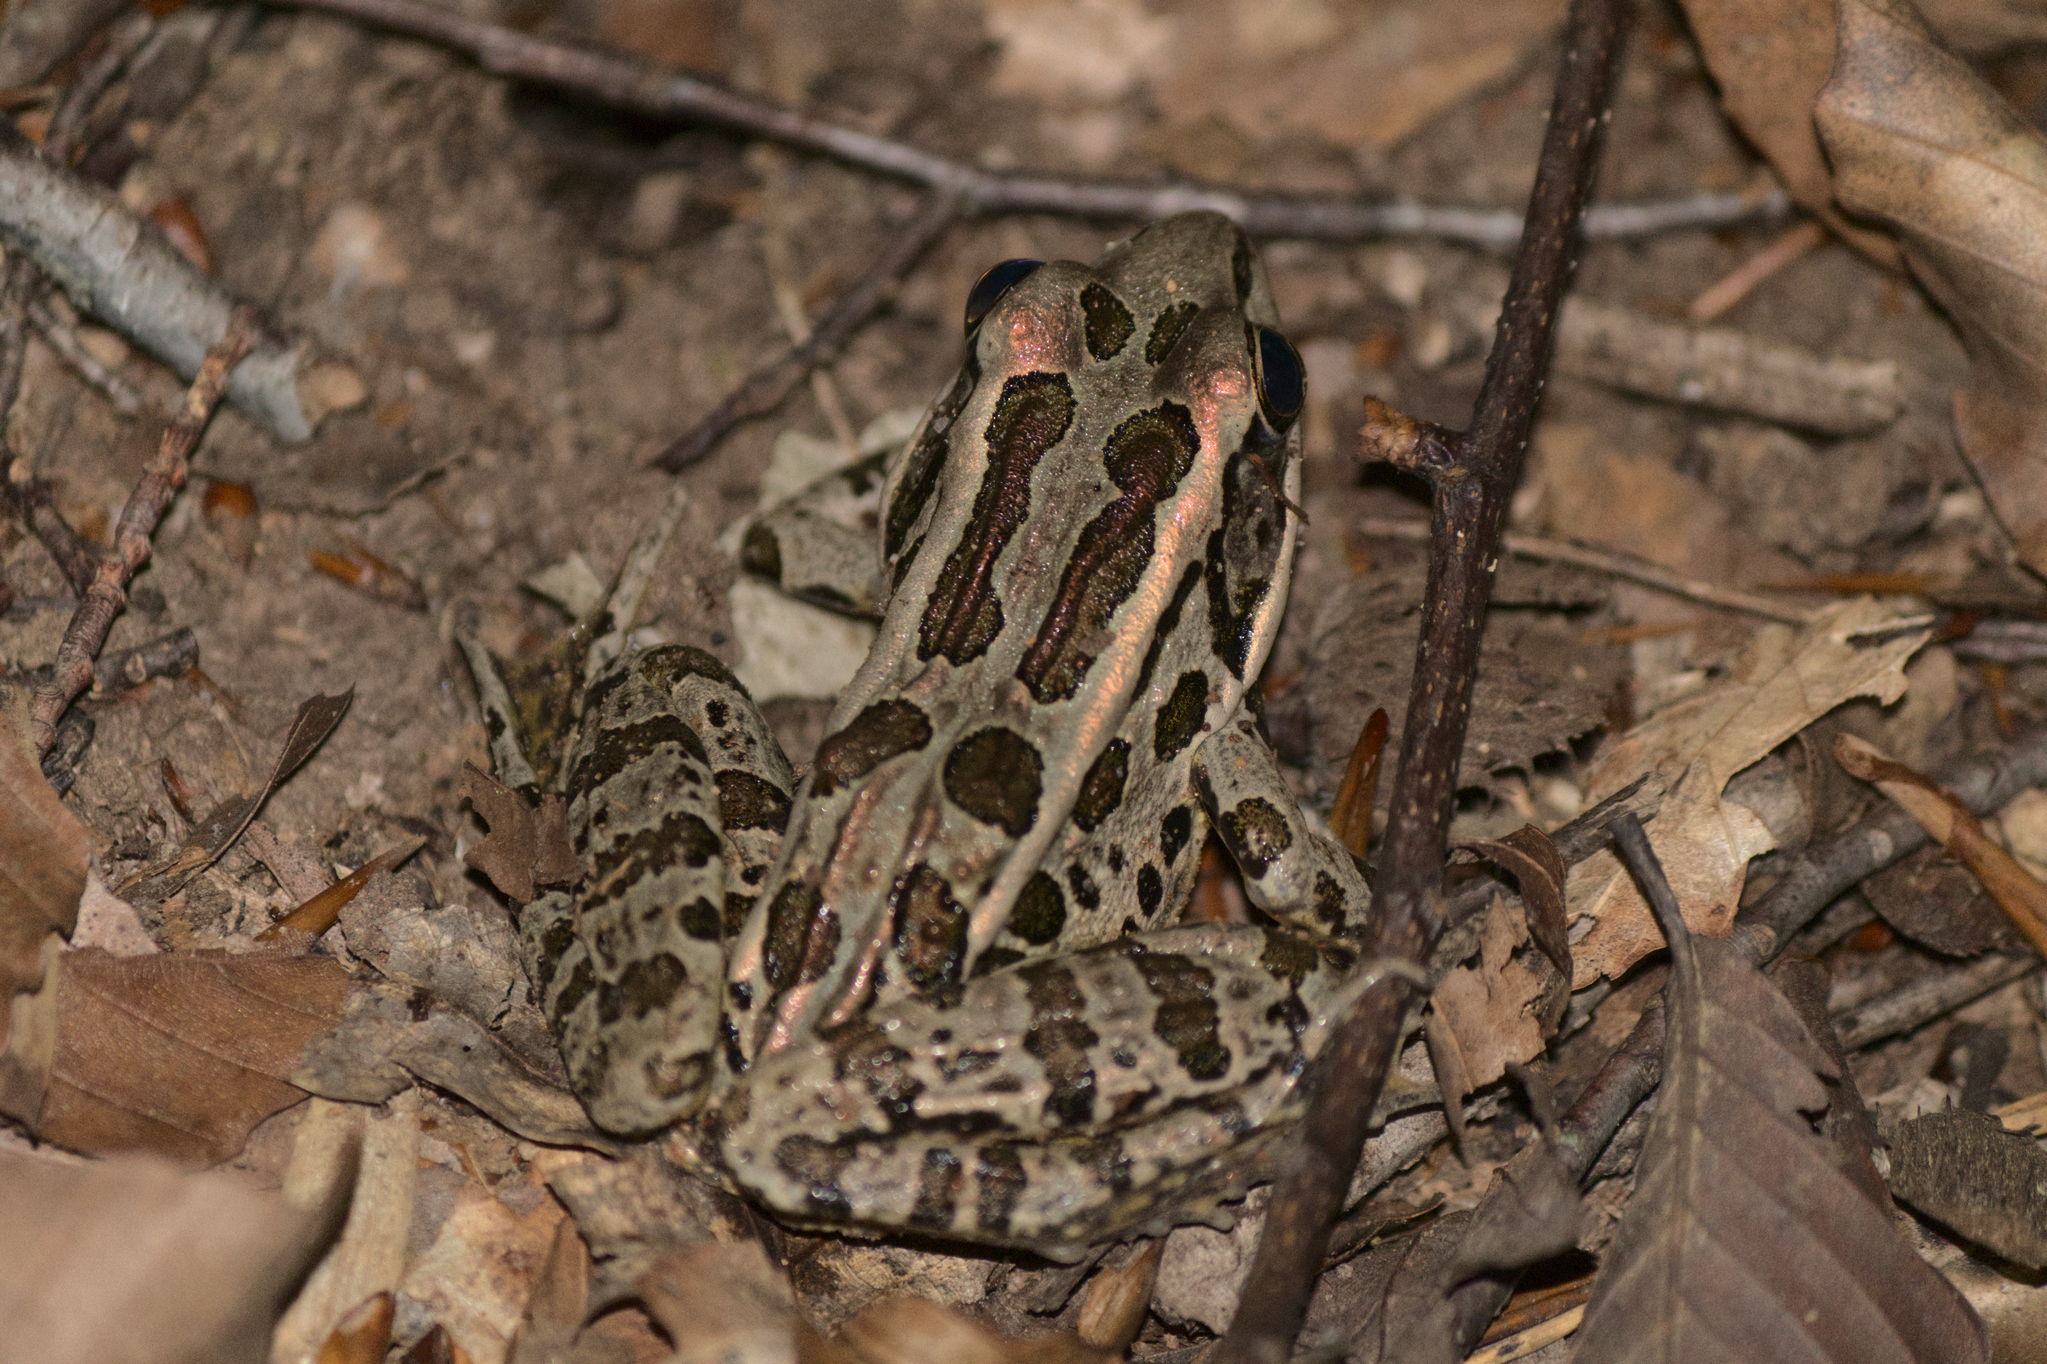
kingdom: Animalia
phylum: Chordata
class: Amphibia
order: Anura
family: Ranidae
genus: Lithobates
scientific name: Lithobates palustris
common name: Pickerel frog
